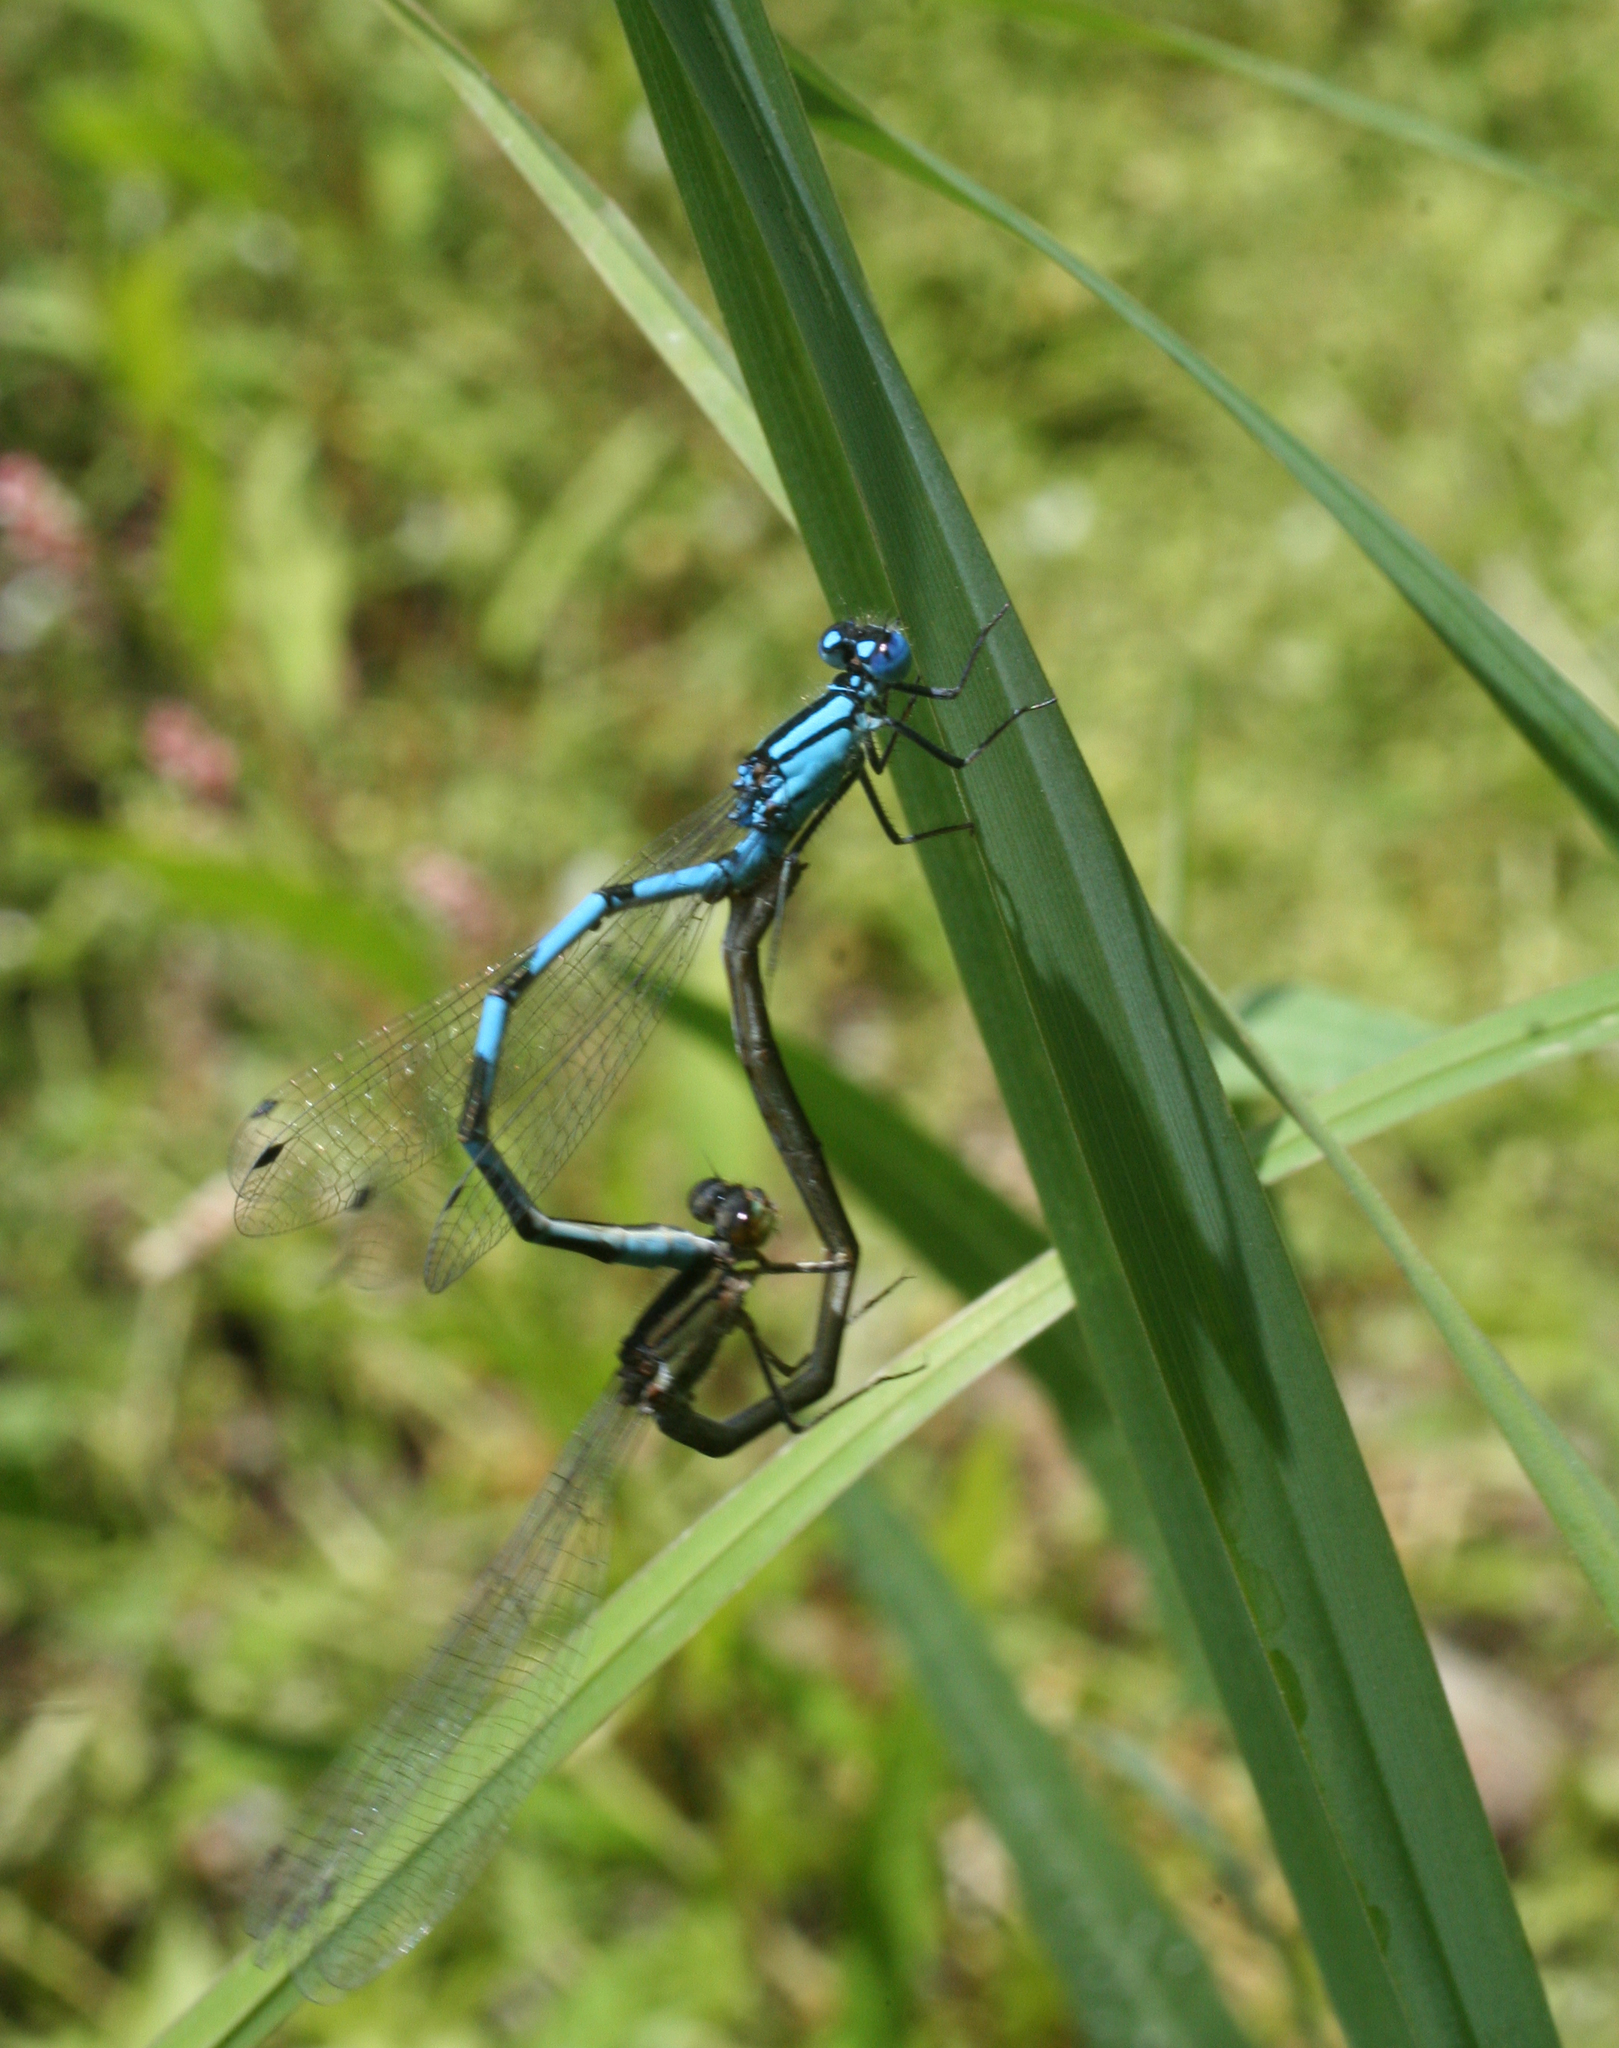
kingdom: Animalia
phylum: Arthropoda
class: Insecta
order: Odonata
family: Coenagrionidae
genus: Enallagma
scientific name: Enallagma cyathigerum
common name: Common blue damselfly
